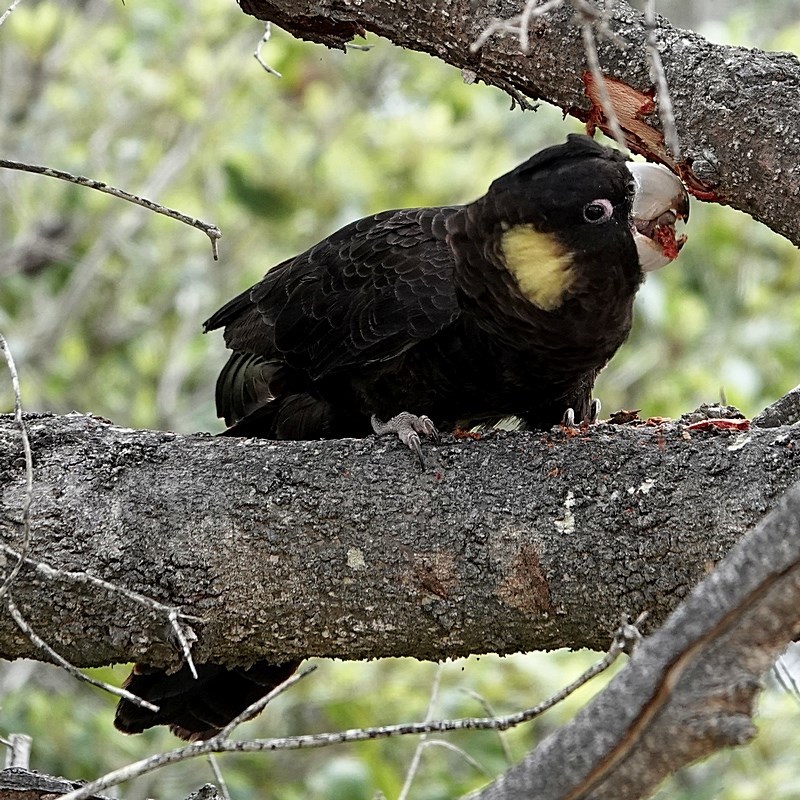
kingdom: Animalia
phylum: Chordata
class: Aves
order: Psittaciformes
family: Cacatuidae
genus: Zanda
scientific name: Zanda funerea
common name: Yellow-tailed black-cockatoo
